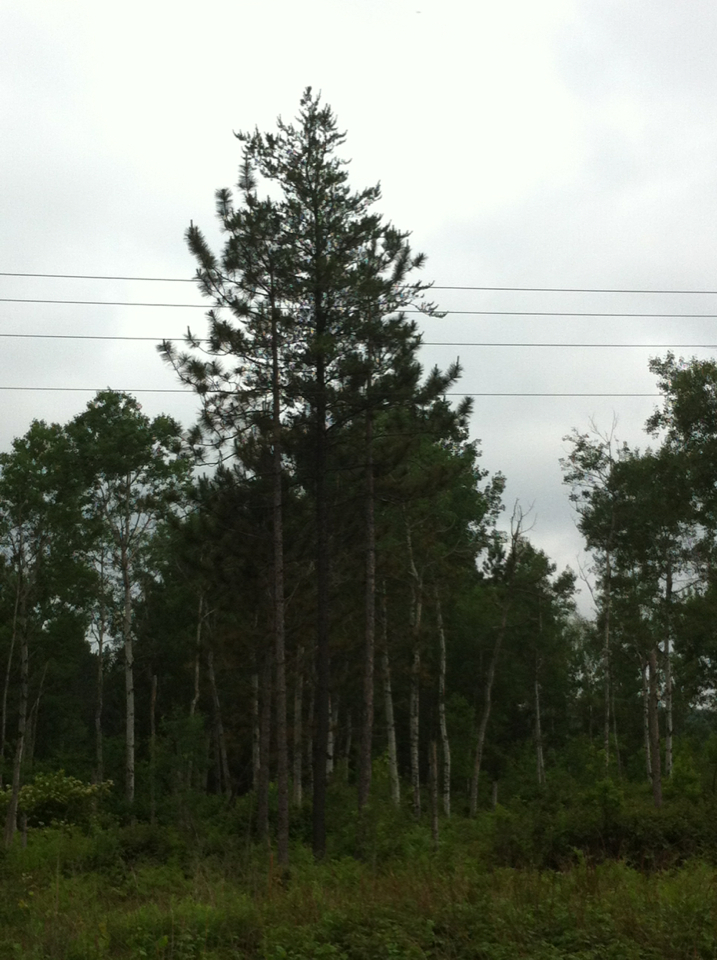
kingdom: Plantae
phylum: Tracheophyta
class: Magnoliopsida
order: Malpighiales
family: Salicaceae
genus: Populus
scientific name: Populus tremuloides
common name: Quaking aspen
